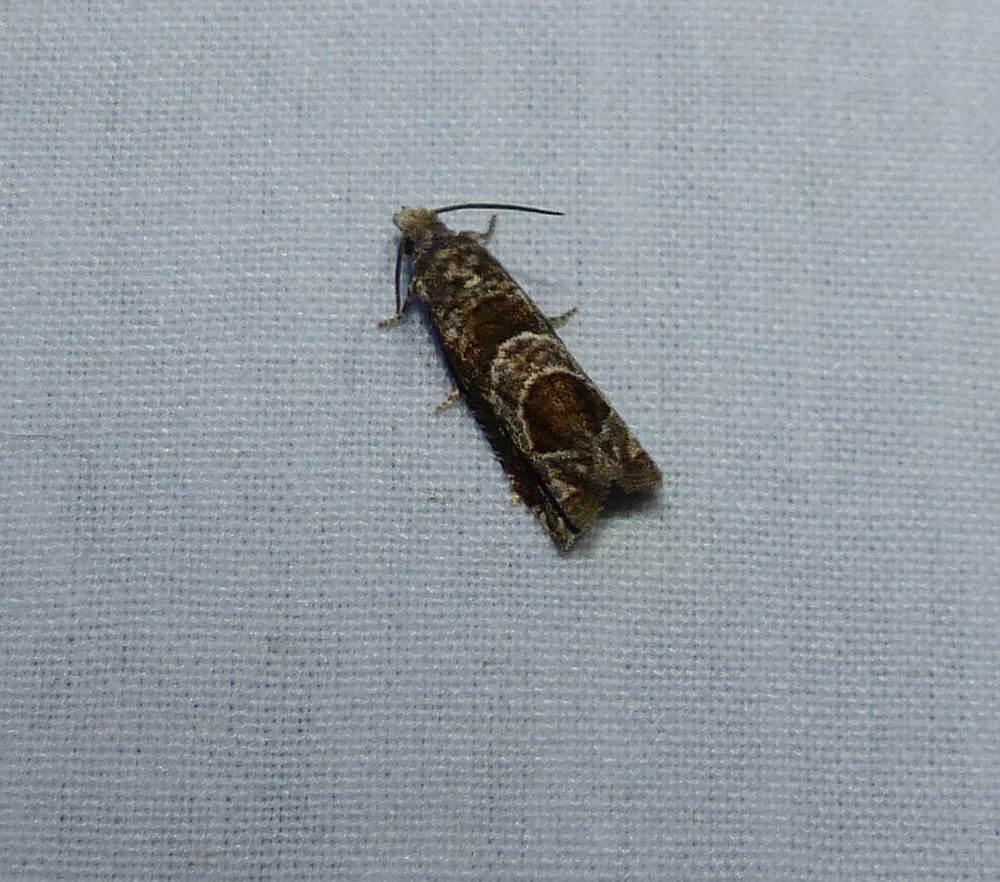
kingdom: Animalia
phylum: Arthropoda
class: Insecta
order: Lepidoptera
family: Tortricidae
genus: Sonia
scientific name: Sonia canadana
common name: Canadian sonia moth
